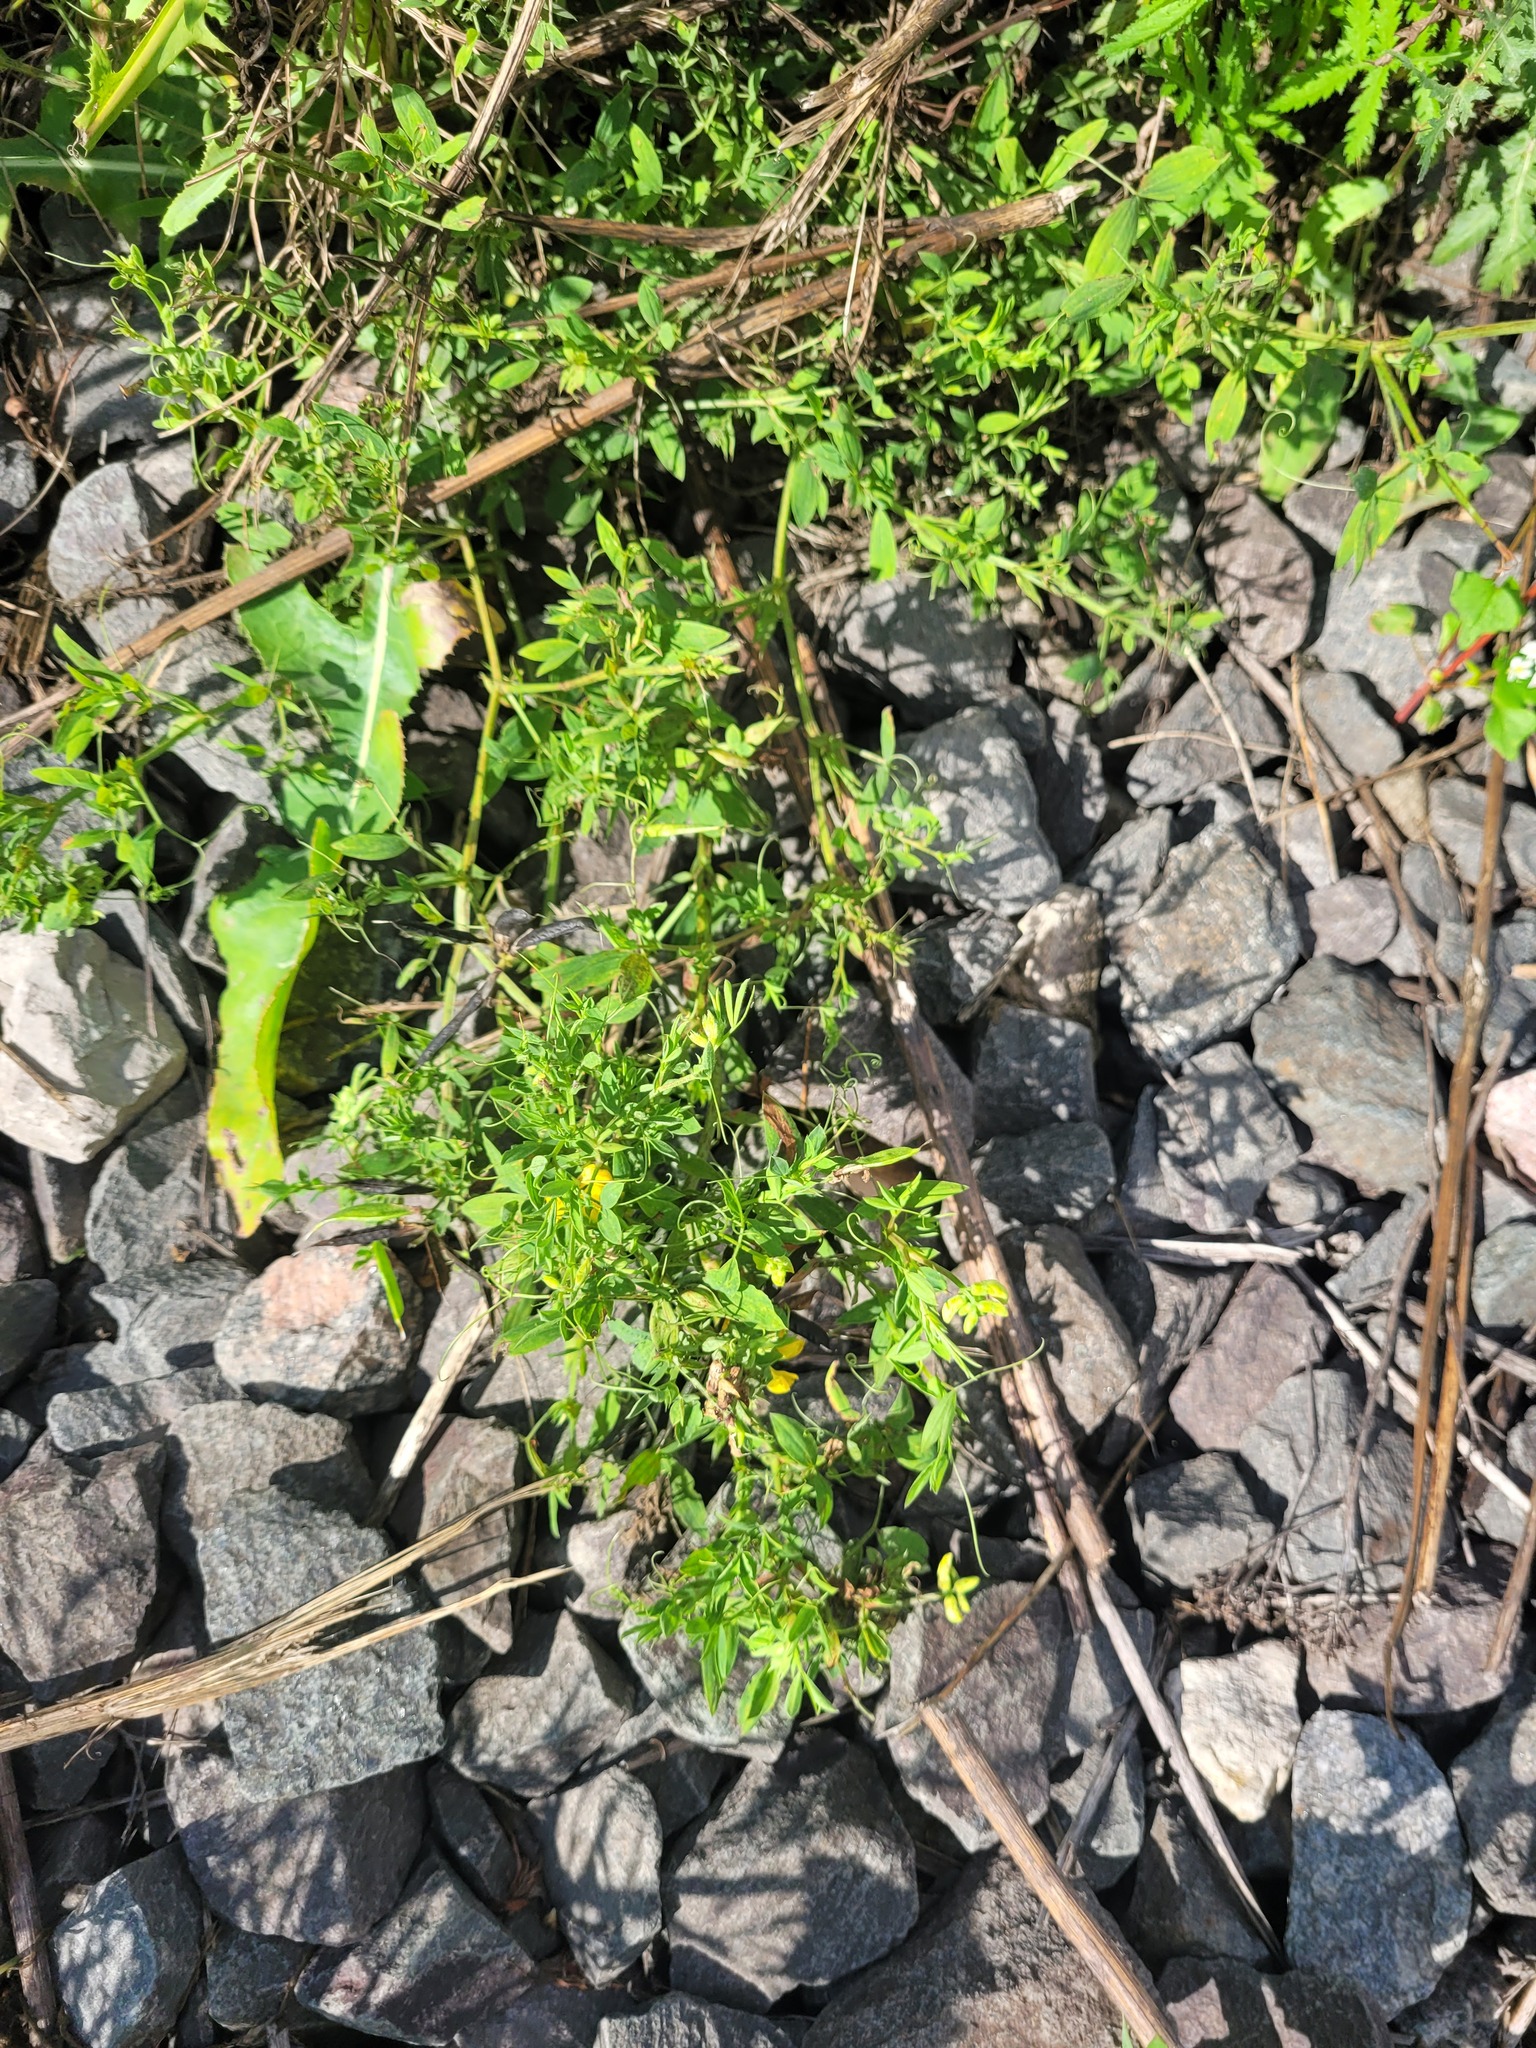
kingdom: Plantae
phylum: Tracheophyta
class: Magnoliopsida
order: Fabales
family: Fabaceae
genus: Lathyrus
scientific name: Lathyrus pratensis
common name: Meadow vetchling
